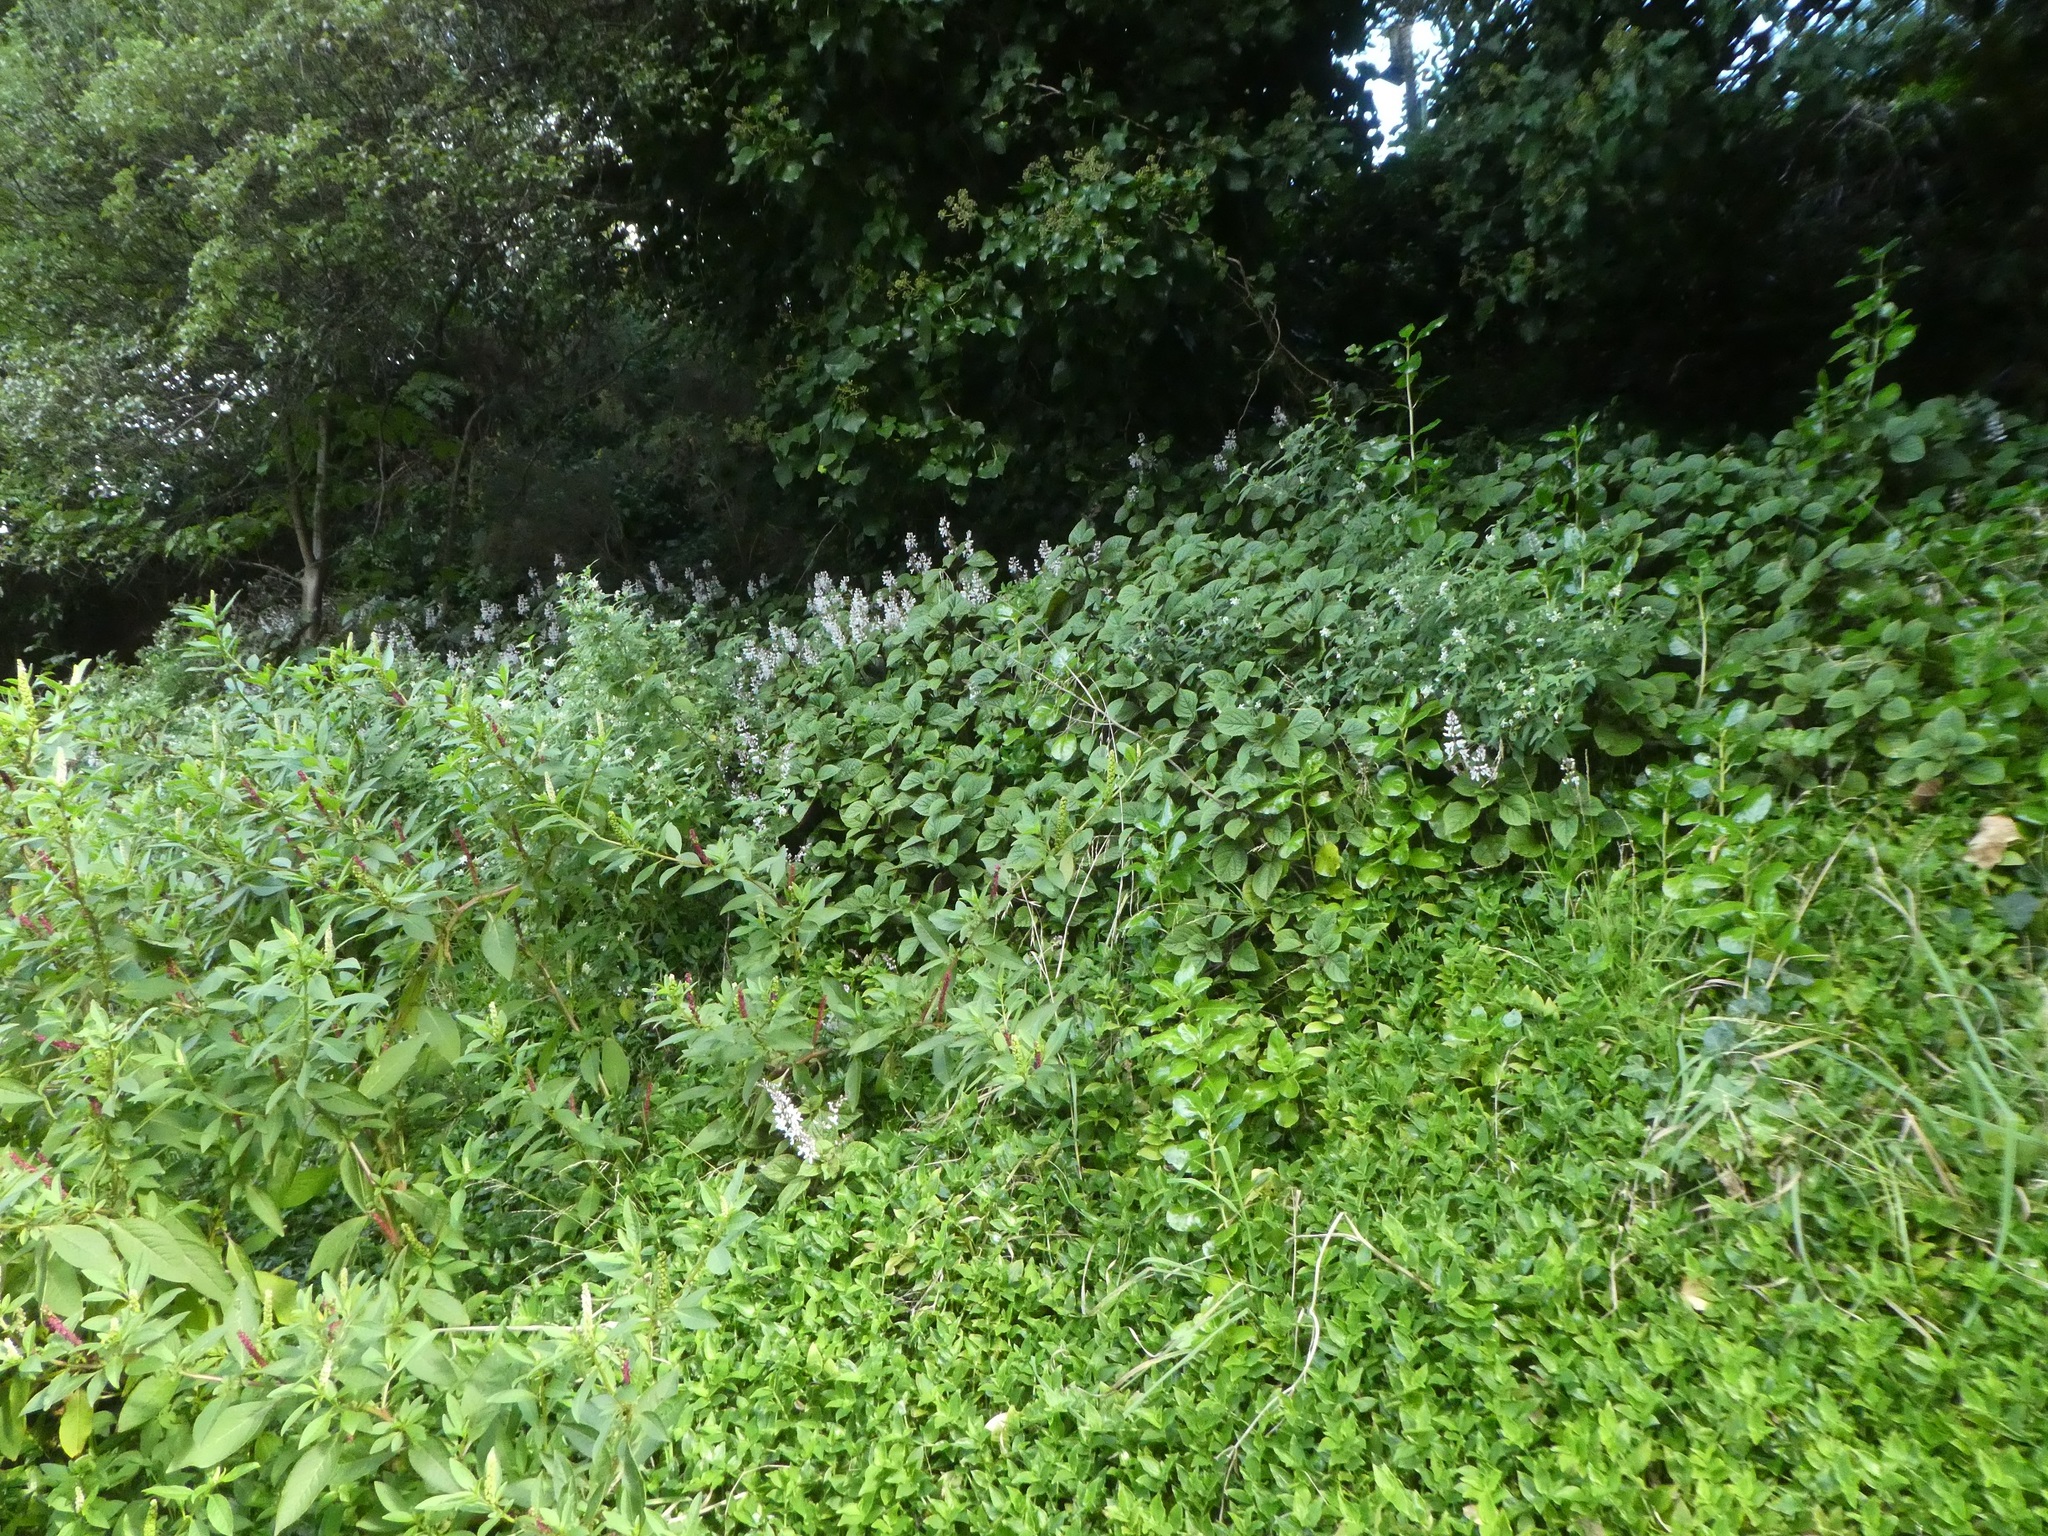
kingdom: Plantae
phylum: Tracheophyta
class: Magnoliopsida
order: Lamiales
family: Lamiaceae
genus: Plectranthus
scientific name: Plectranthus ciliatus
